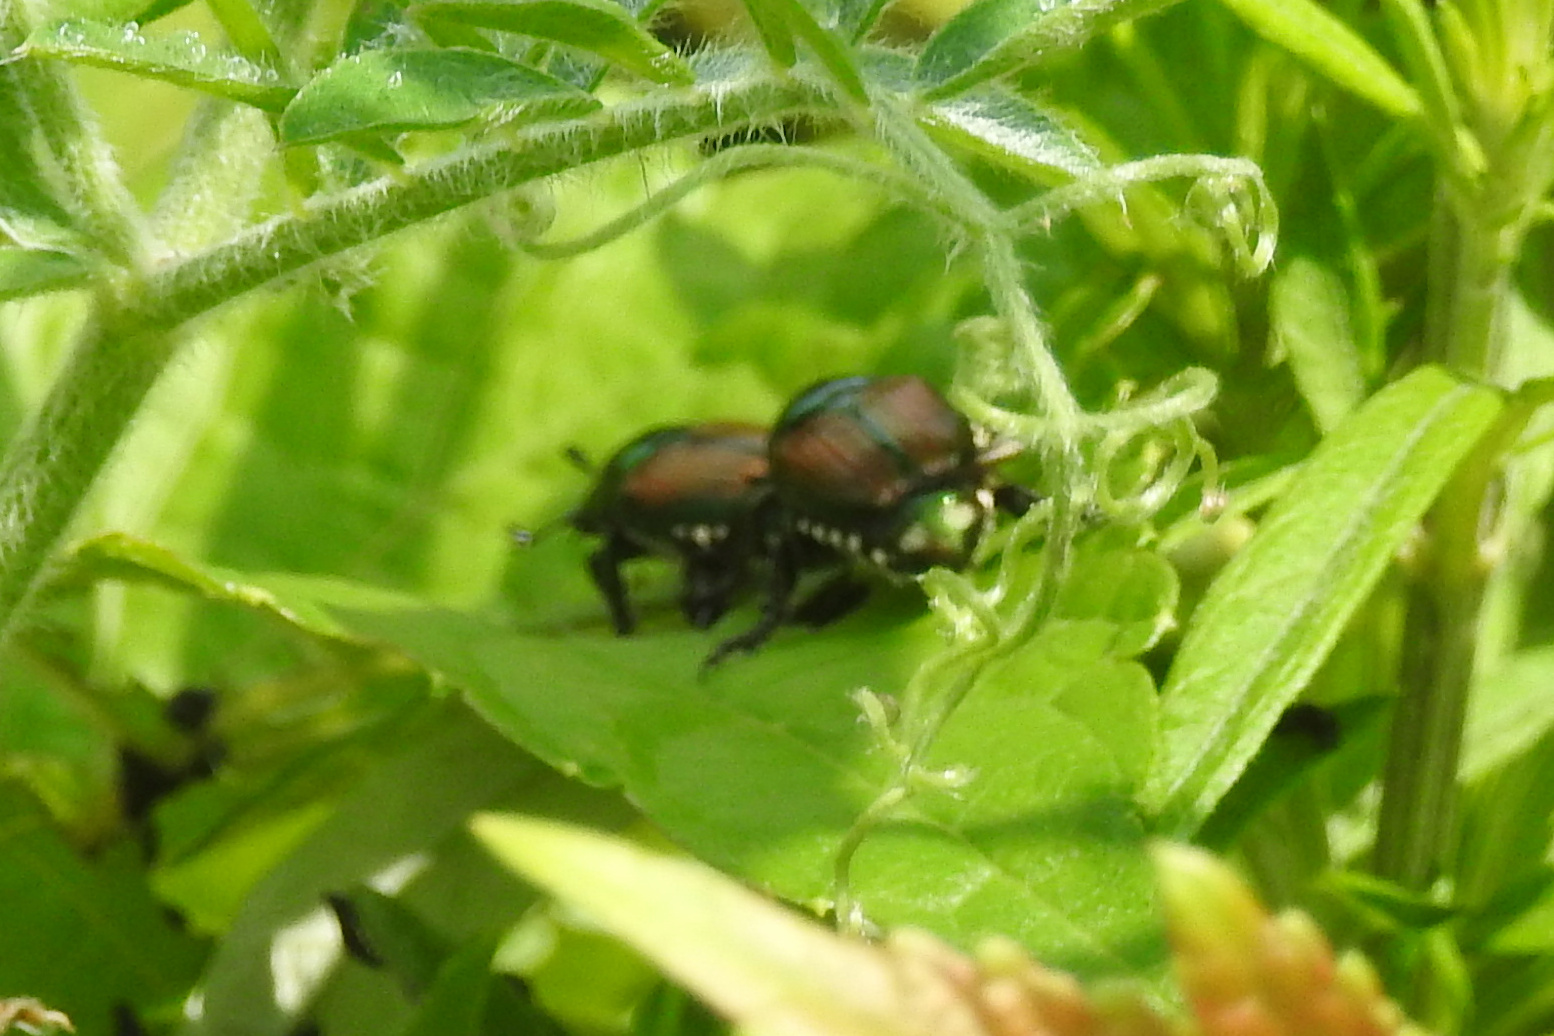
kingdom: Animalia
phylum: Arthropoda
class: Insecta
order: Coleoptera
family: Scarabaeidae
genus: Popillia
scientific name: Popillia japonica
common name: Japanese beetle
